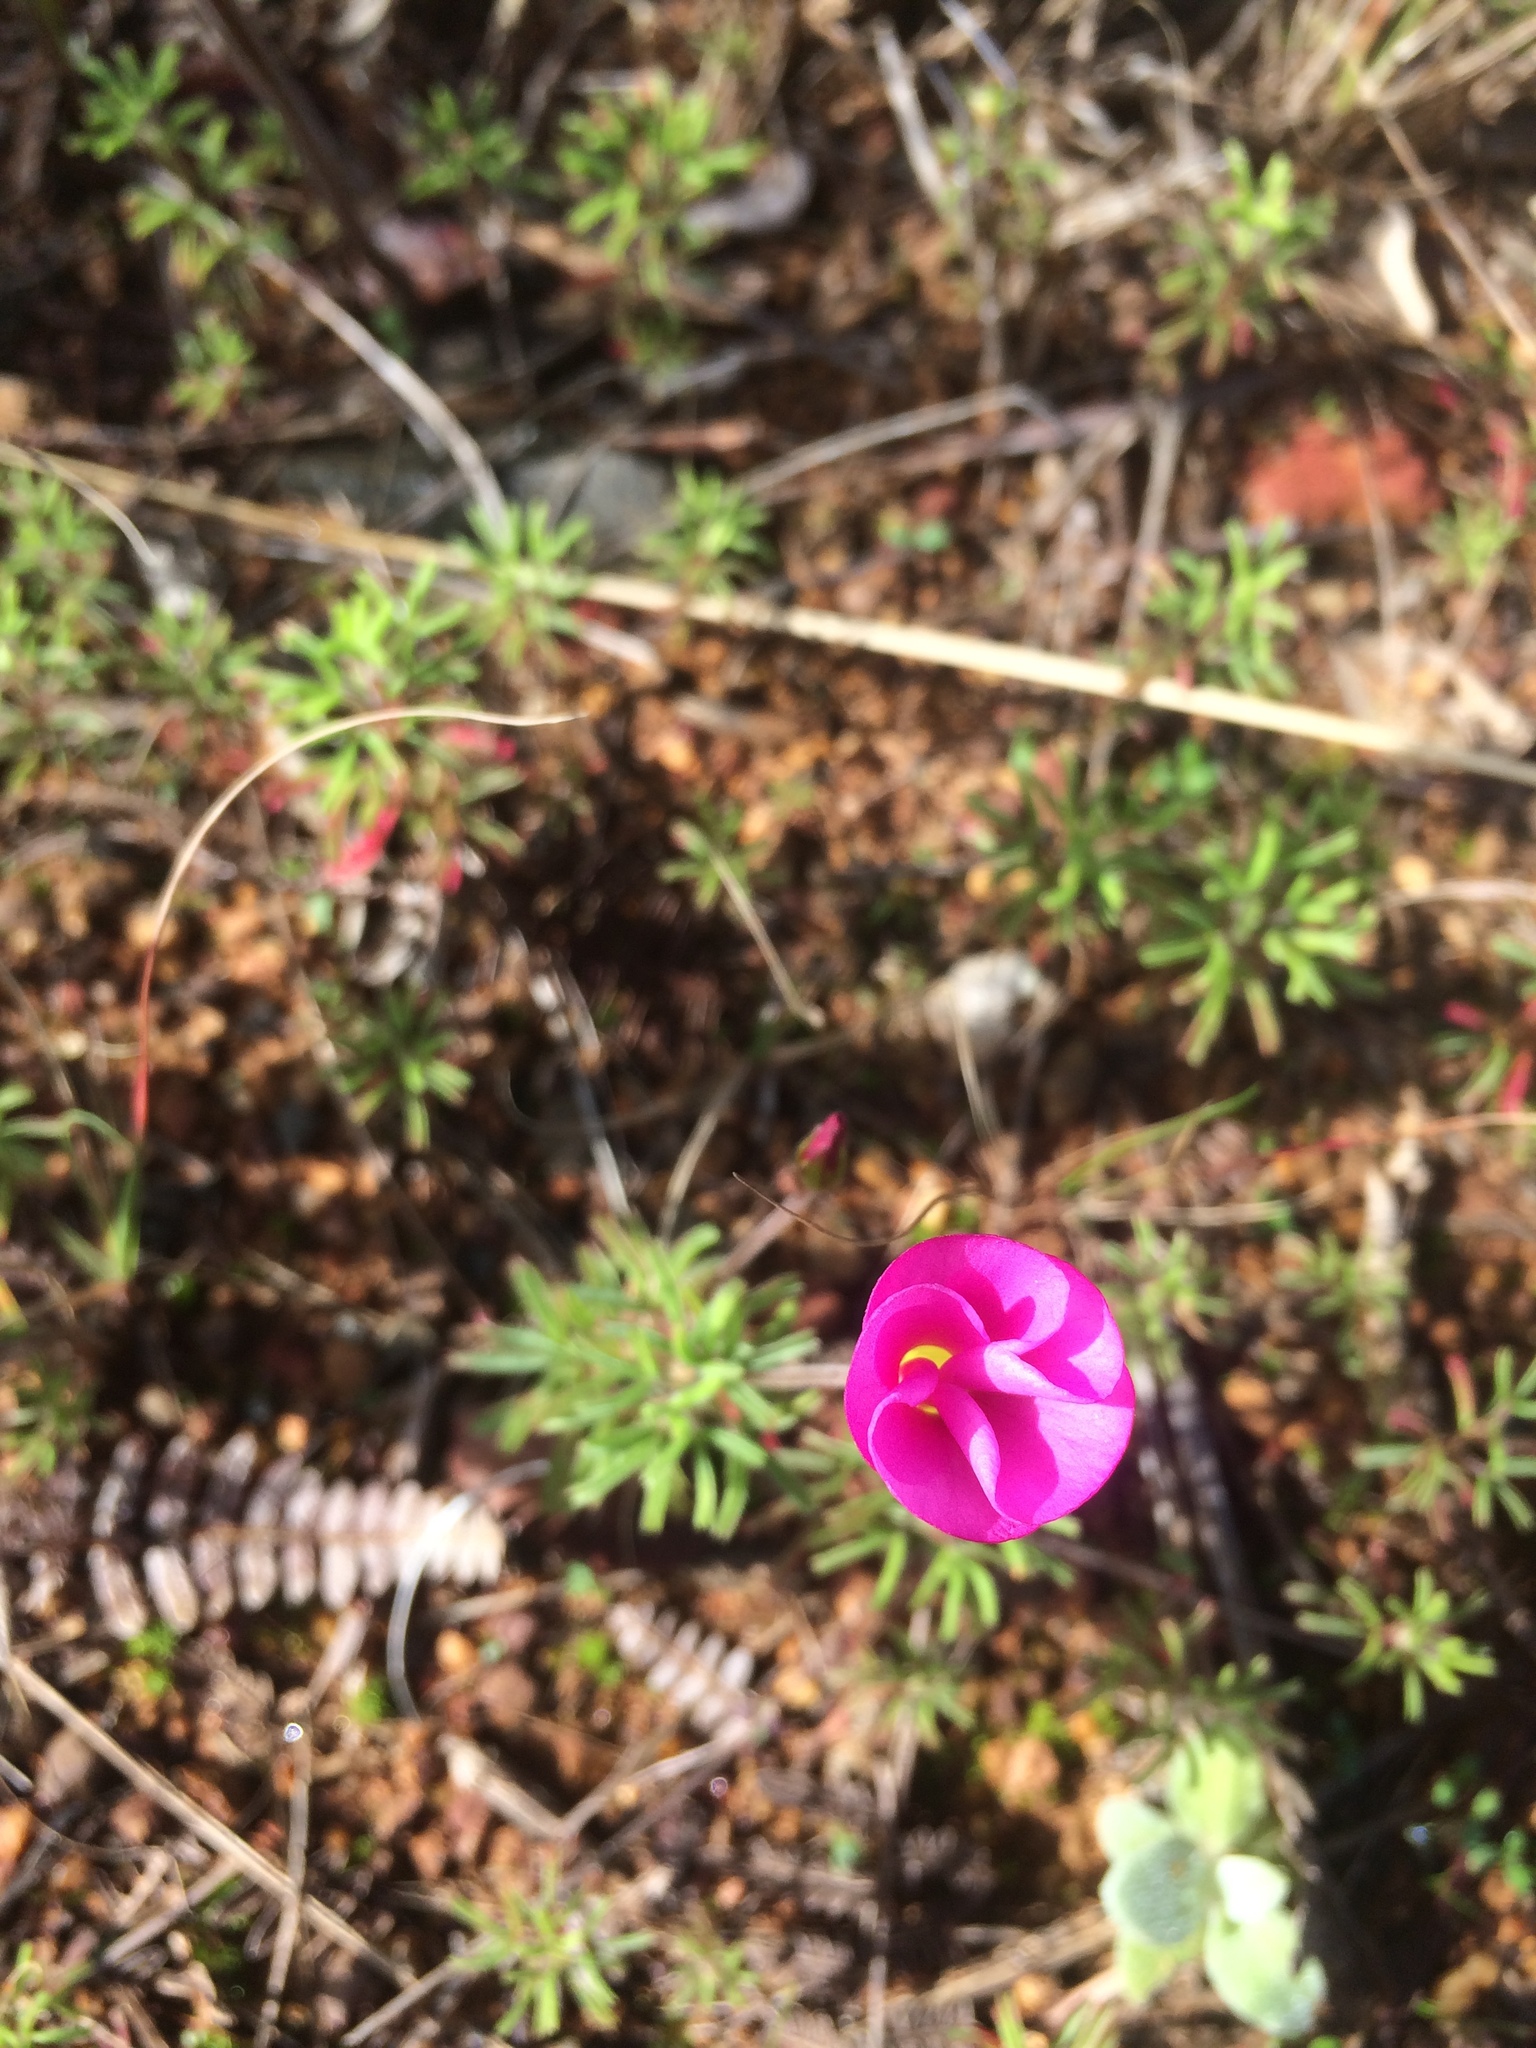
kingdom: Plantae
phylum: Tracheophyta
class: Magnoliopsida
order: Oxalidales
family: Oxalidaceae
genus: Oxalis
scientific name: Oxalis glabra
